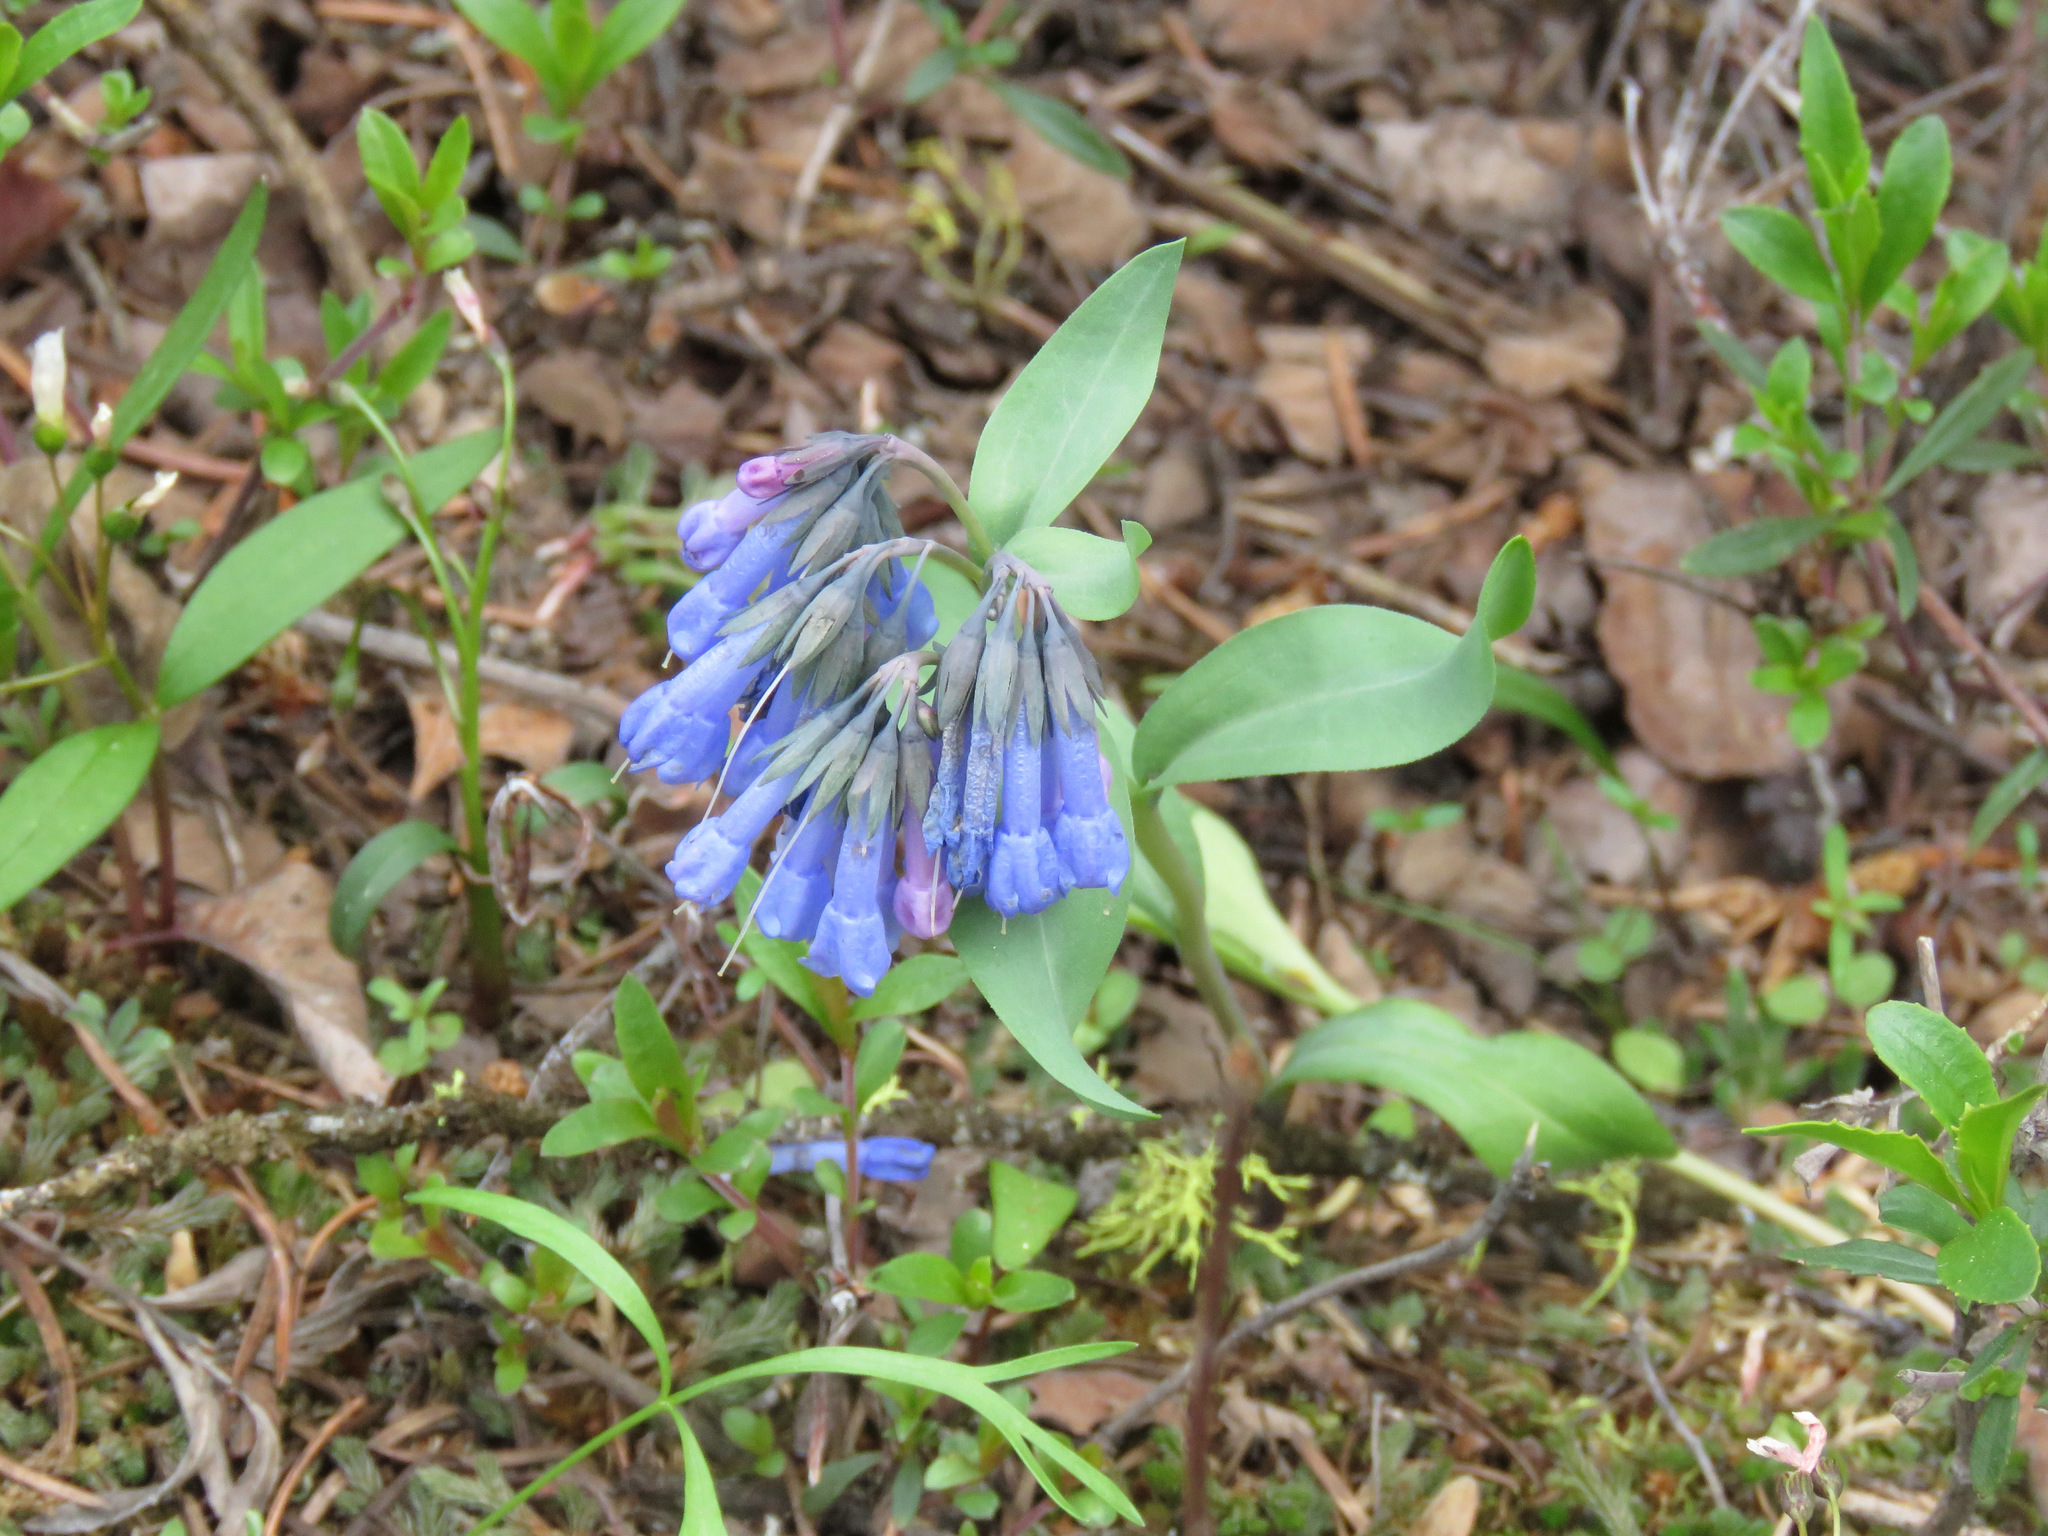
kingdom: Plantae
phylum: Tracheophyta
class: Magnoliopsida
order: Boraginales
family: Boraginaceae
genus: Mertensia
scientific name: Mertensia longiflora
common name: Large-flowered bluebells
